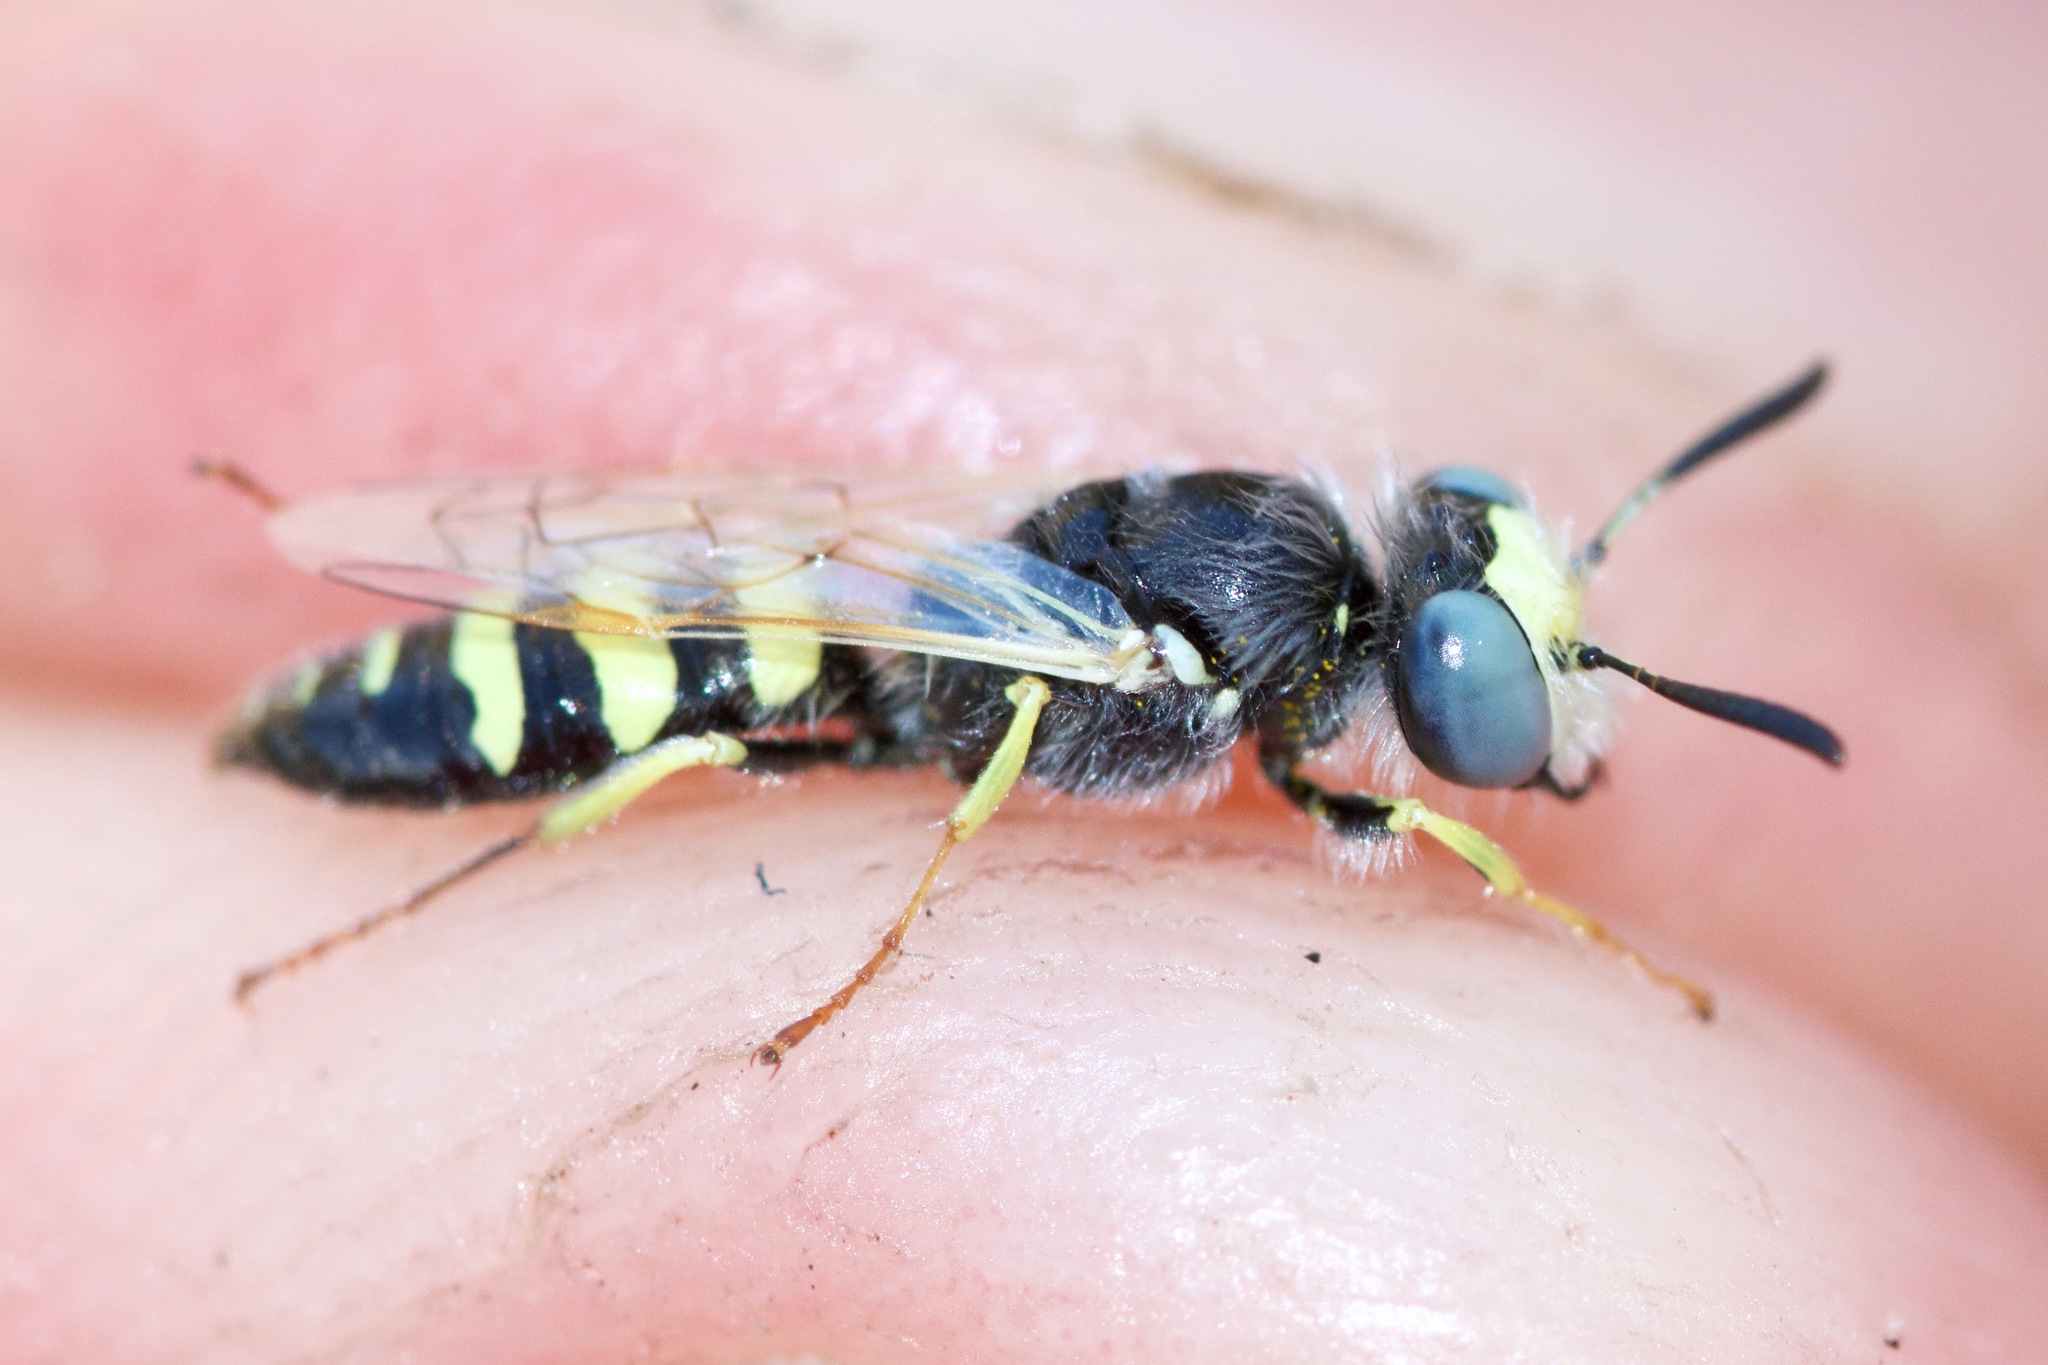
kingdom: Animalia
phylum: Arthropoda
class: Insecta
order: Hymenoptera
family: Crabronidae
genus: Philanthus
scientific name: Philanthus albopilosus
